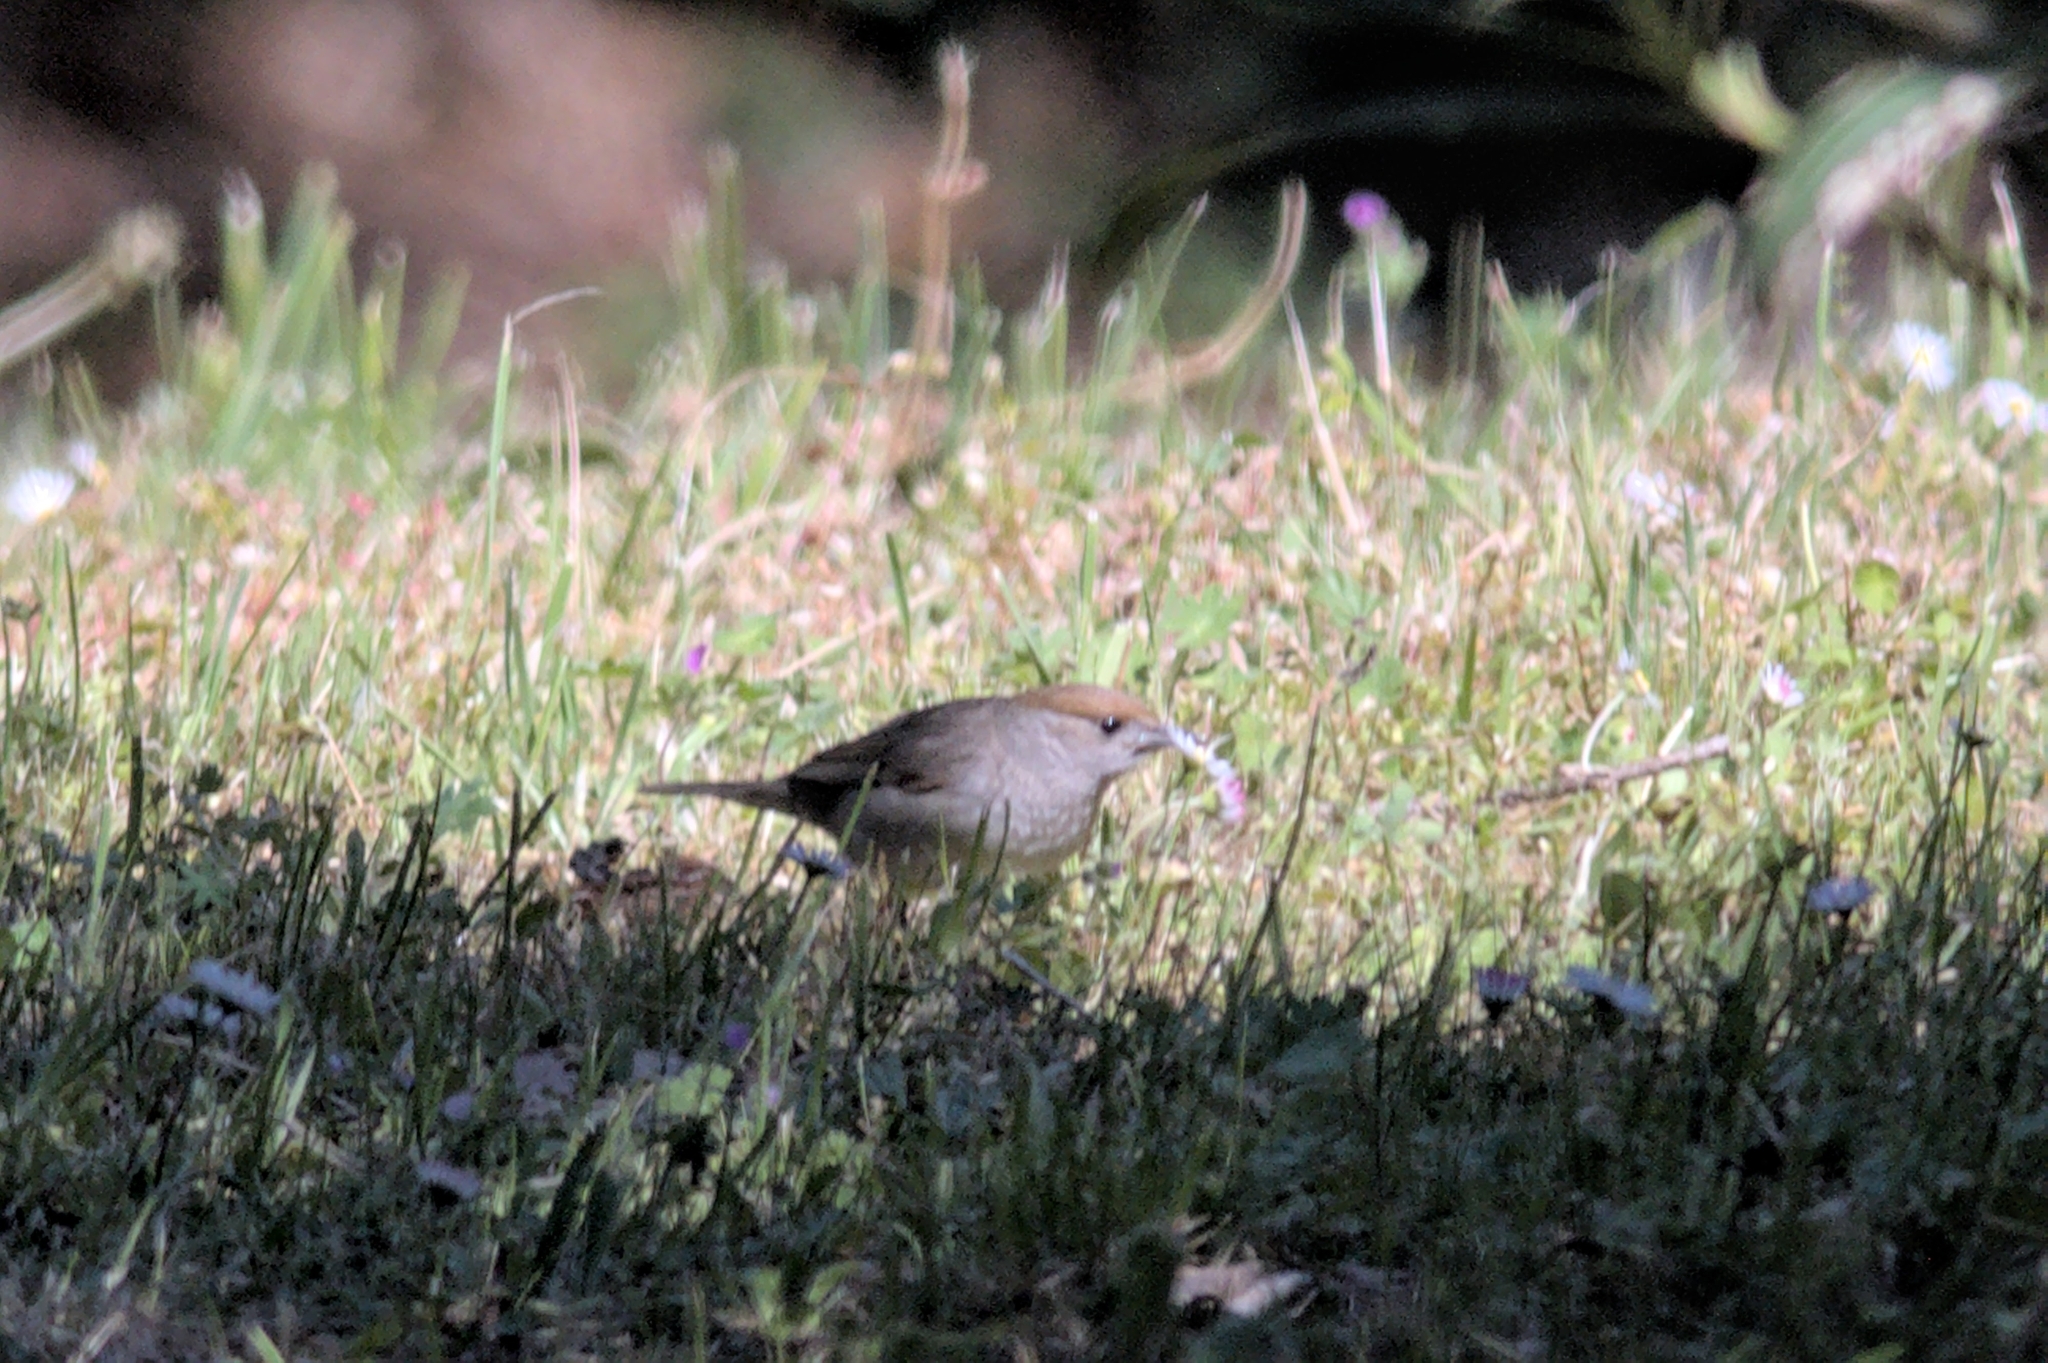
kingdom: Animalia
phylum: Chordata
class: Aves
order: Passeriformes
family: Sylviidae
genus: Sylvia
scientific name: Sylvia atricapilla
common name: Eurasian blackcap
